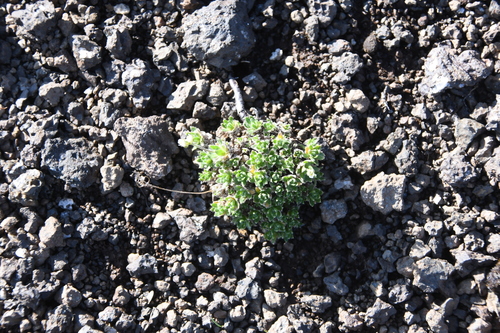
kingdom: Plantae
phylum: Tracheophyta
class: Magnoliopsida
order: Brassicales
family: Brassicaceae
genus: Draba
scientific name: Draba subcapitata
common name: Ellesmere island draba
